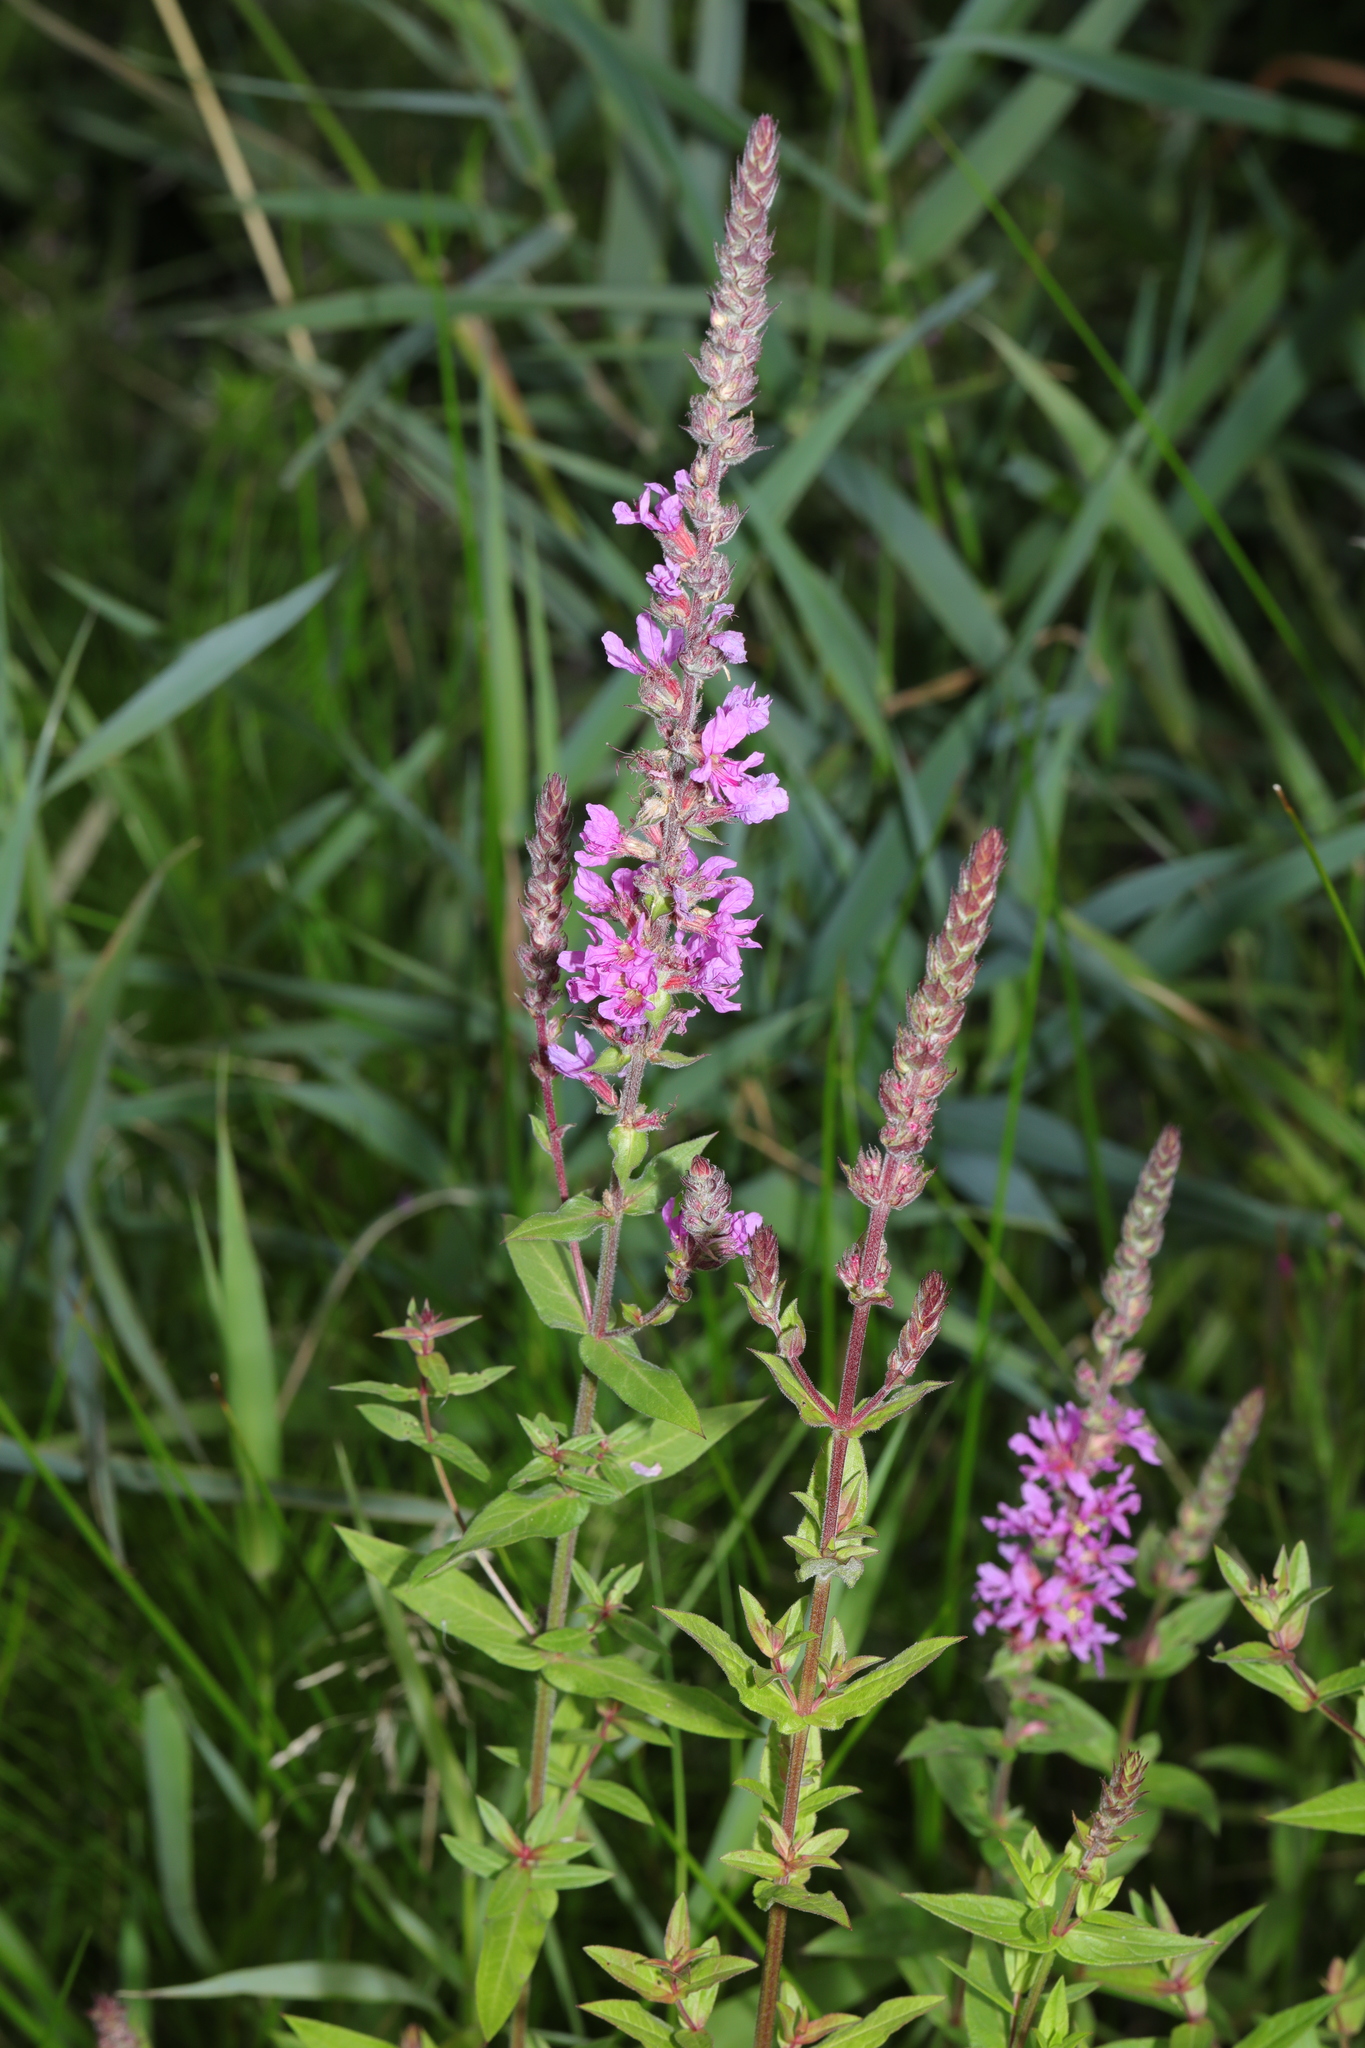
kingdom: Plantae
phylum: Tracheophyta
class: Magnoliopsida
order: Myrtales
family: Lythraceae
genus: Lythrum
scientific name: Lythrum salicaria
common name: Purple loosestrife
